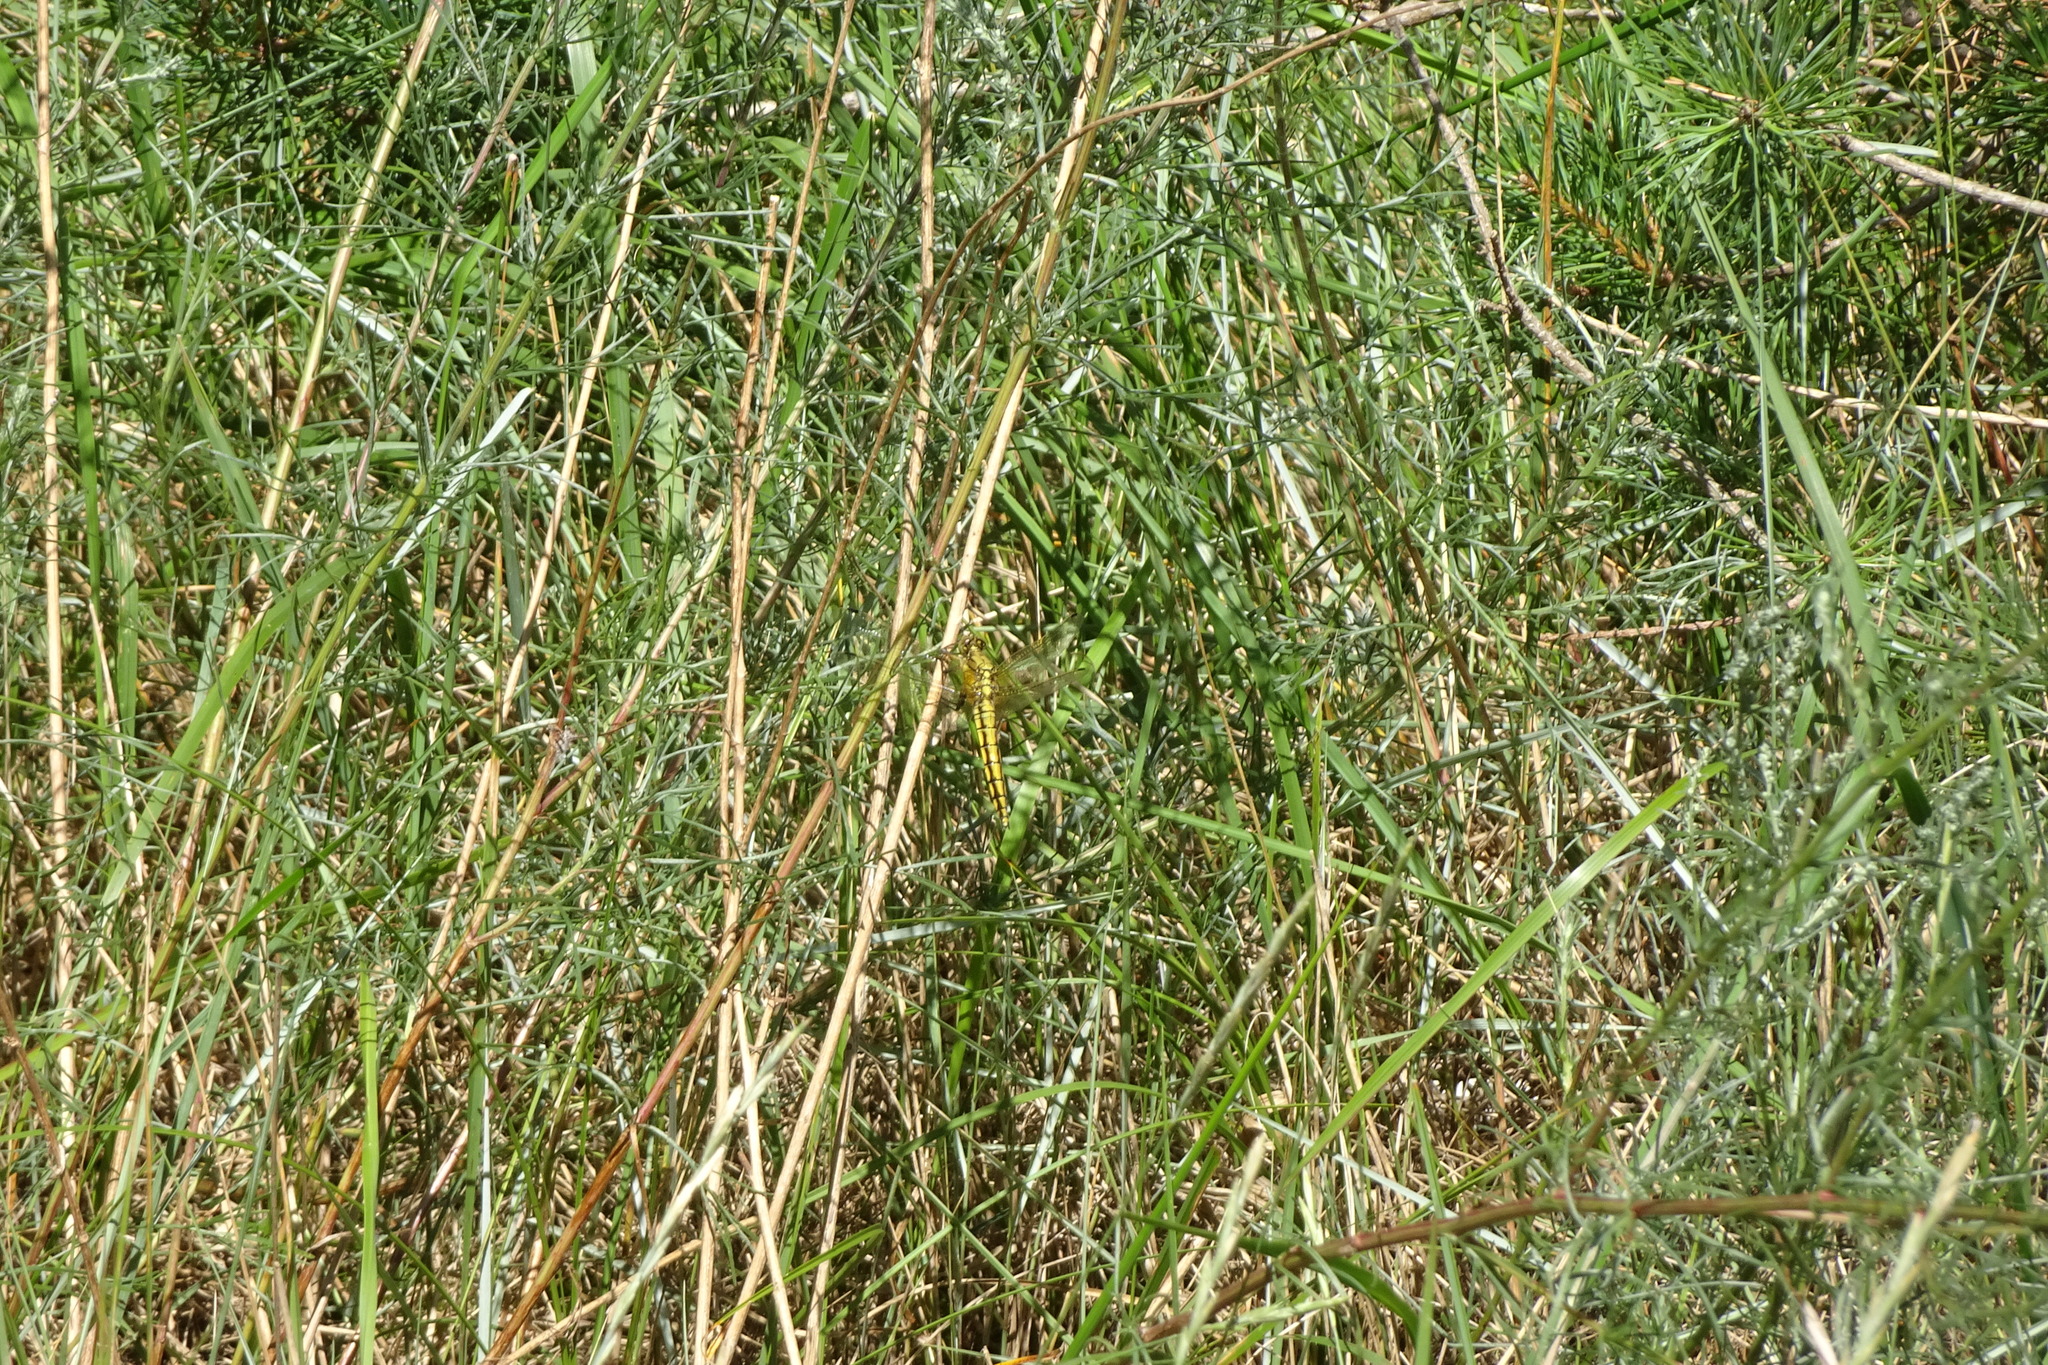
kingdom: Animalia
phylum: Arthropoda
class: Insecta
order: Odonata
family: Libellulidae
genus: Orthetrum
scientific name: Orthetrum cancellatum
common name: Black-tailed skimmer
